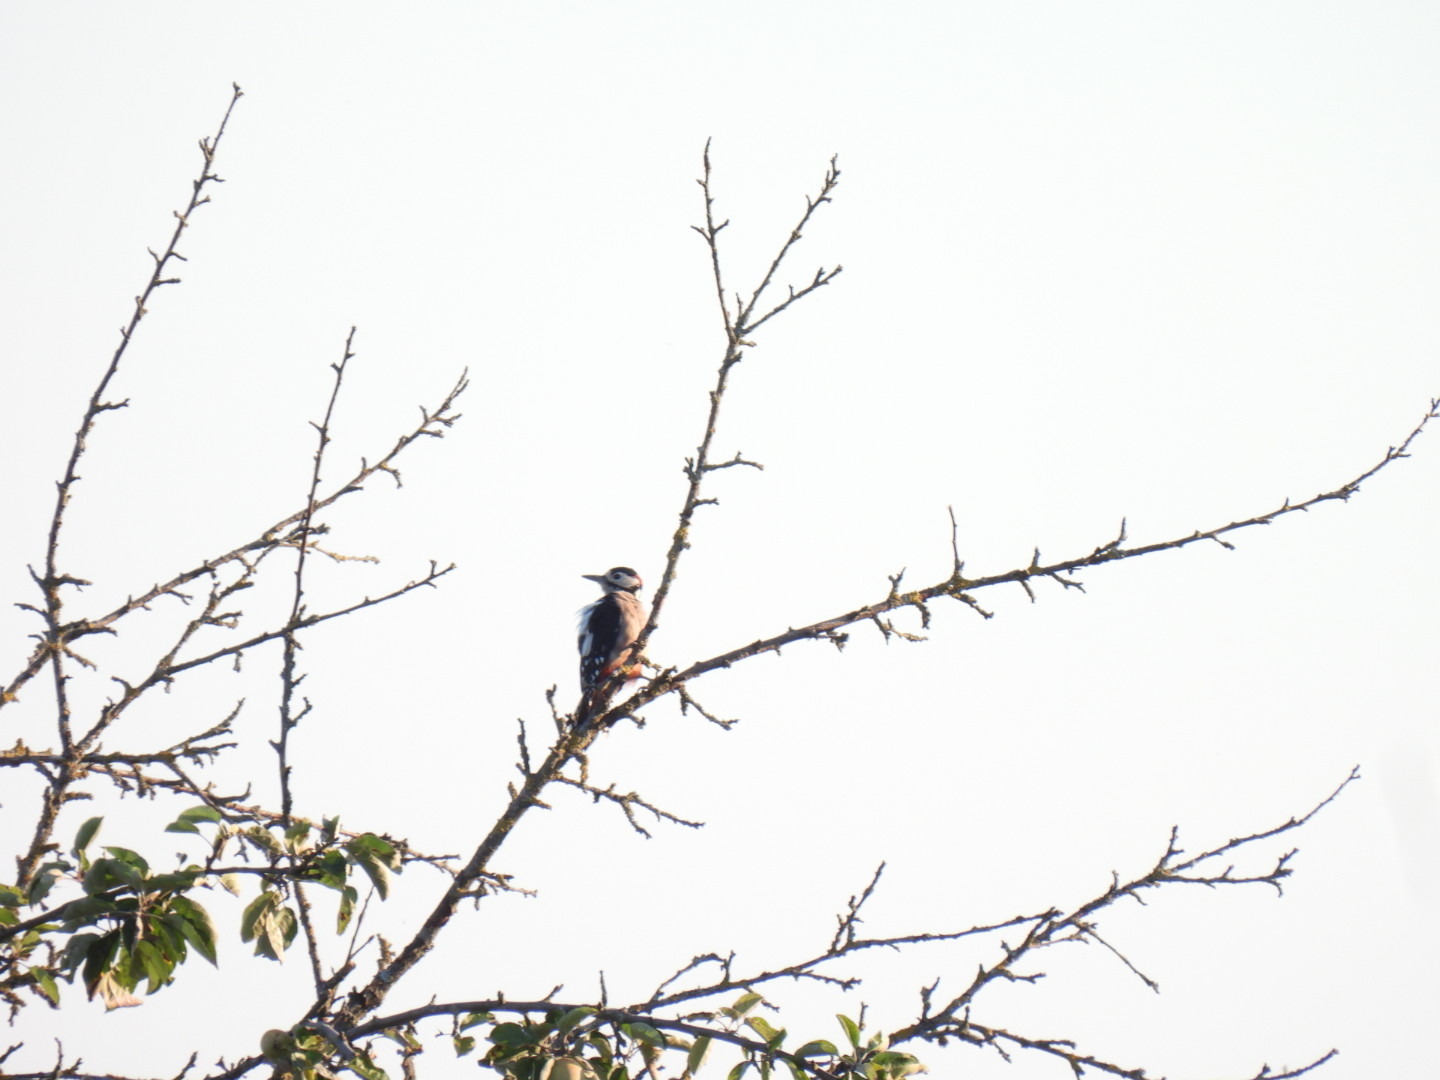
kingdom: Animalia
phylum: Chordata
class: Aves
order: Piciformes
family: Picidae
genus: Dendrocopos
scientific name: Dendrocopos major
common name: Great spotted woodpecker
